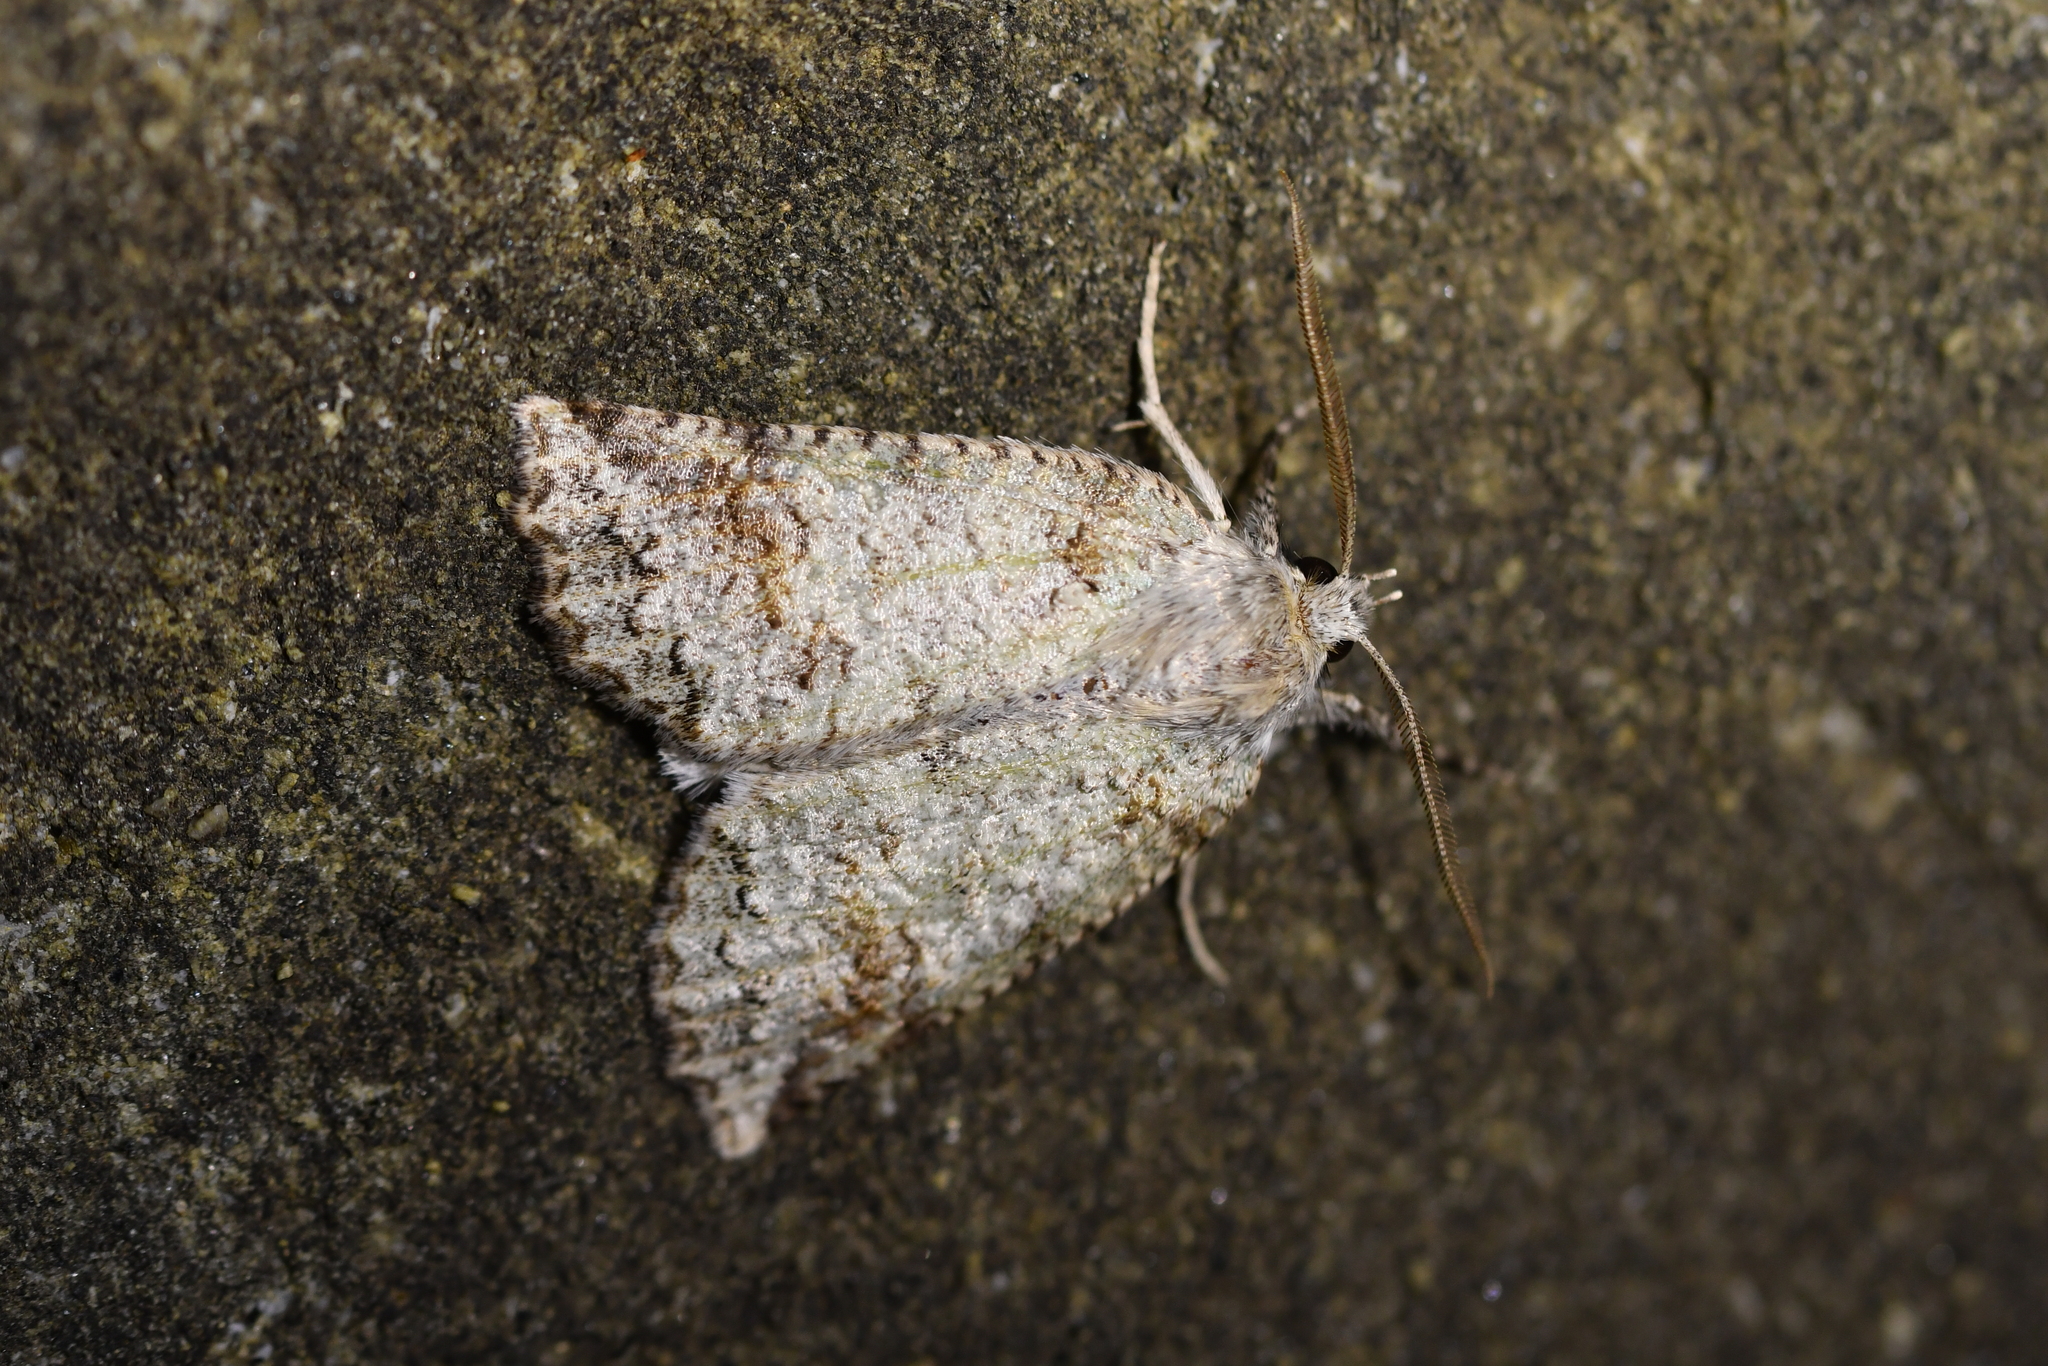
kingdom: Animalia
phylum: Arthropoda
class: Insecta
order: Lepidoptera
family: Geometridae
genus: Declana
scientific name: Declana floccosa
